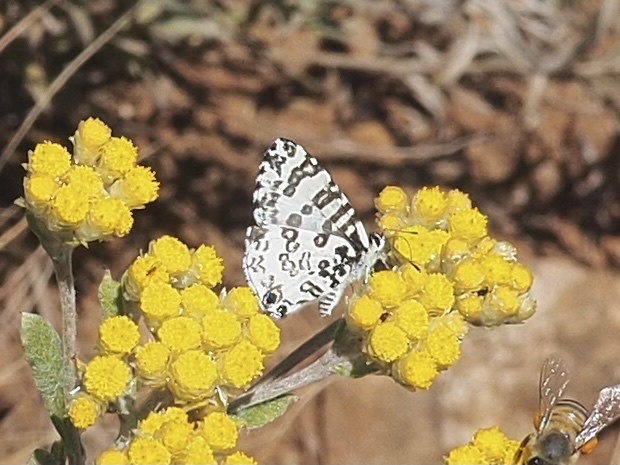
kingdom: Animalia
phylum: Arthropoda
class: Insecta
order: Lepidoptera
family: Lycaenidae
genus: Uranothauma
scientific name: Uranothauma antinorii
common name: Antinori's branded blue
